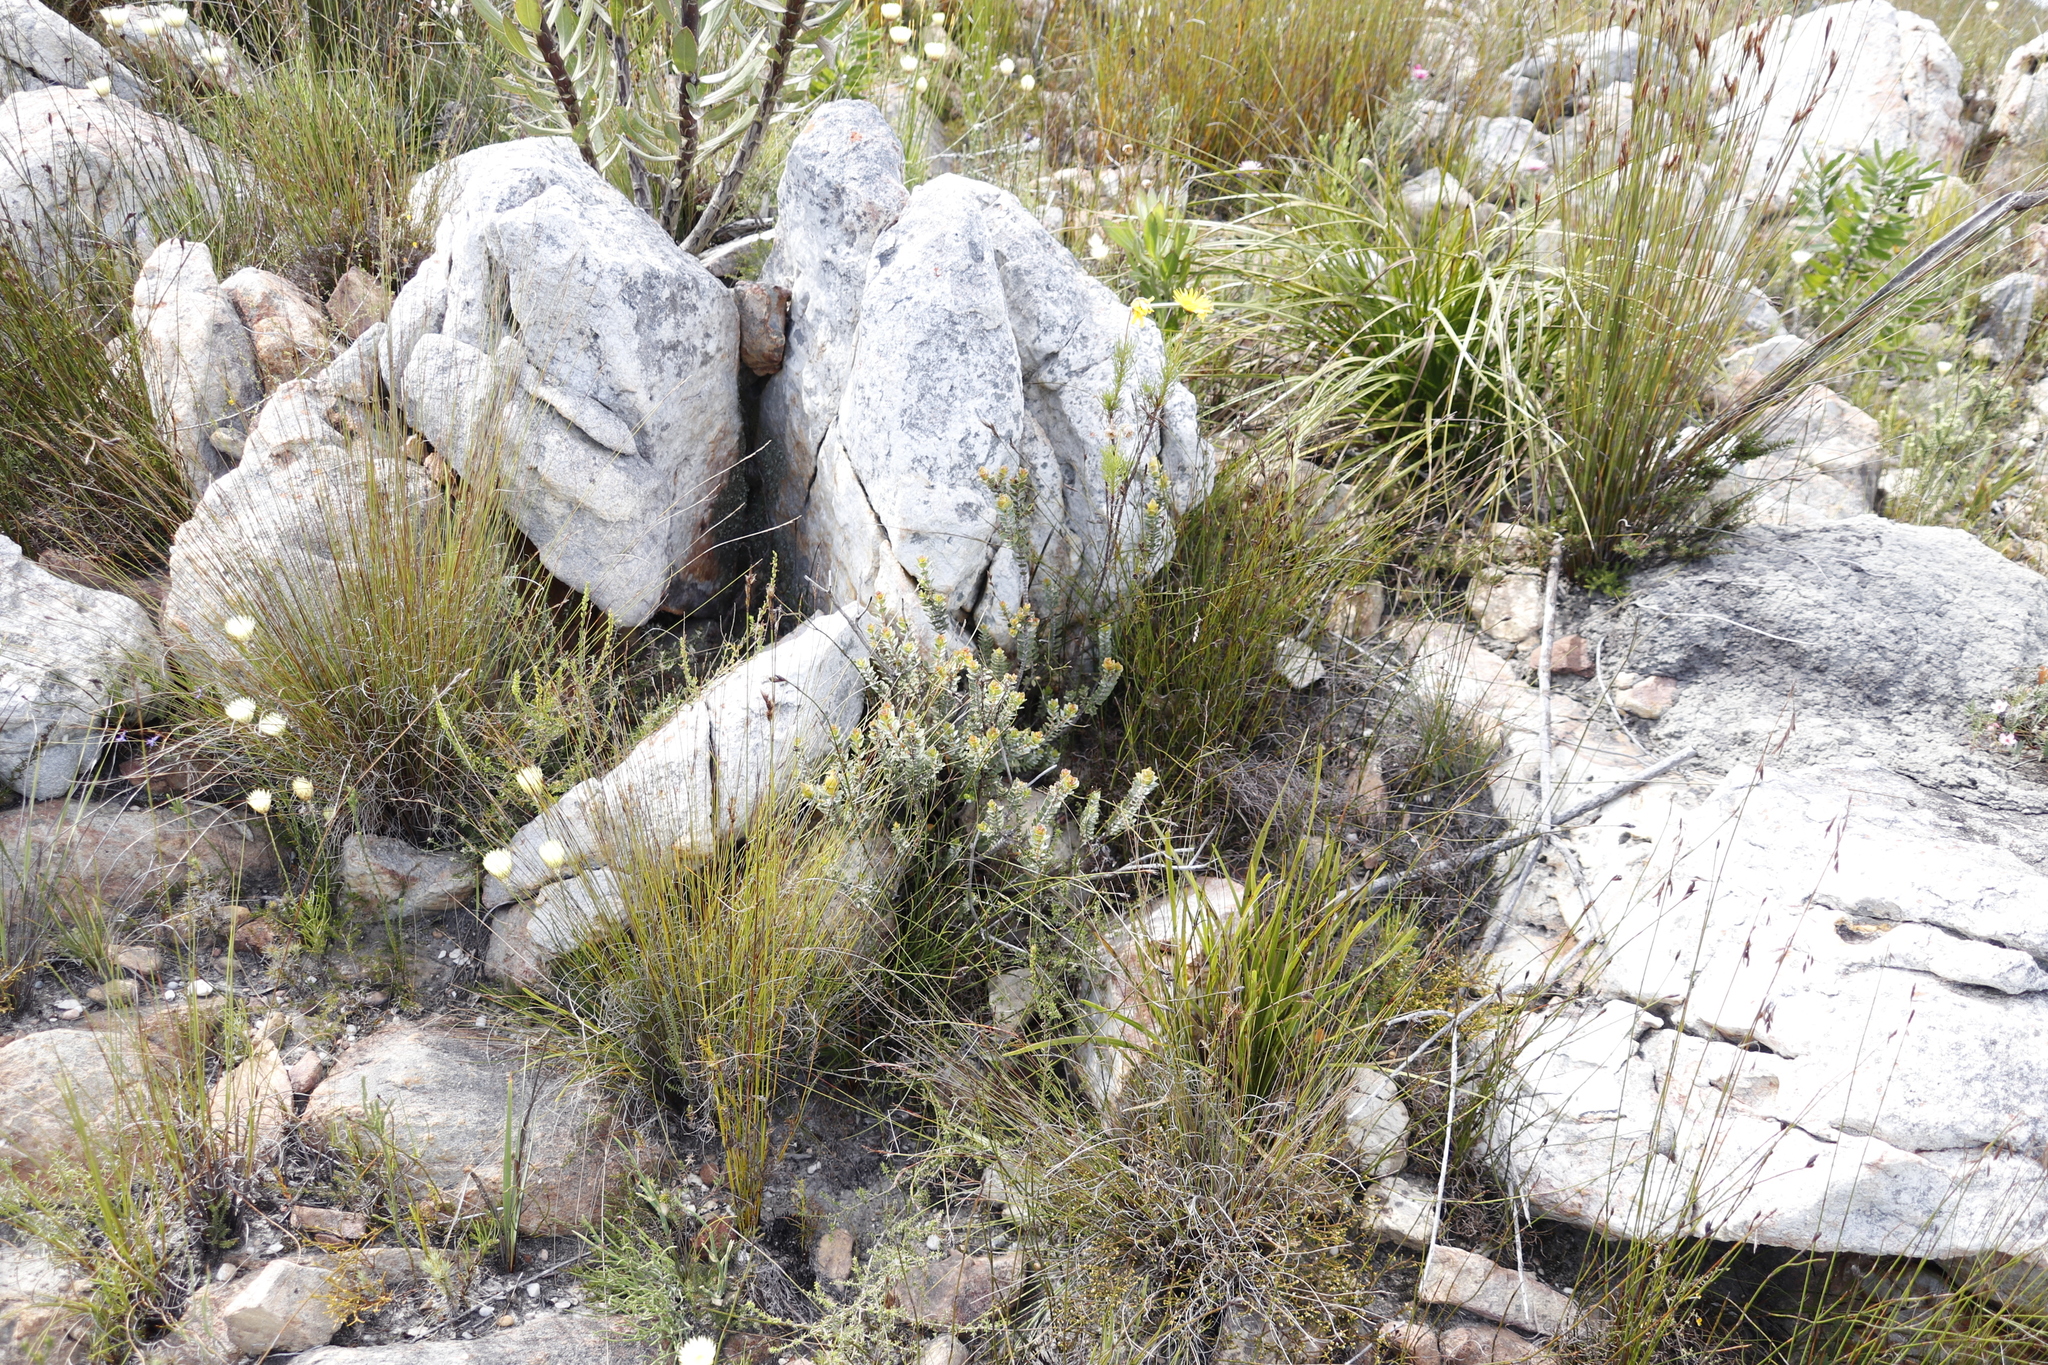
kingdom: Plantae
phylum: Tracheophyta
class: Magnoliopsida
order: Myrtales
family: Penaeaceae
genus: Saltera
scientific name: Saltera sarcocolla
